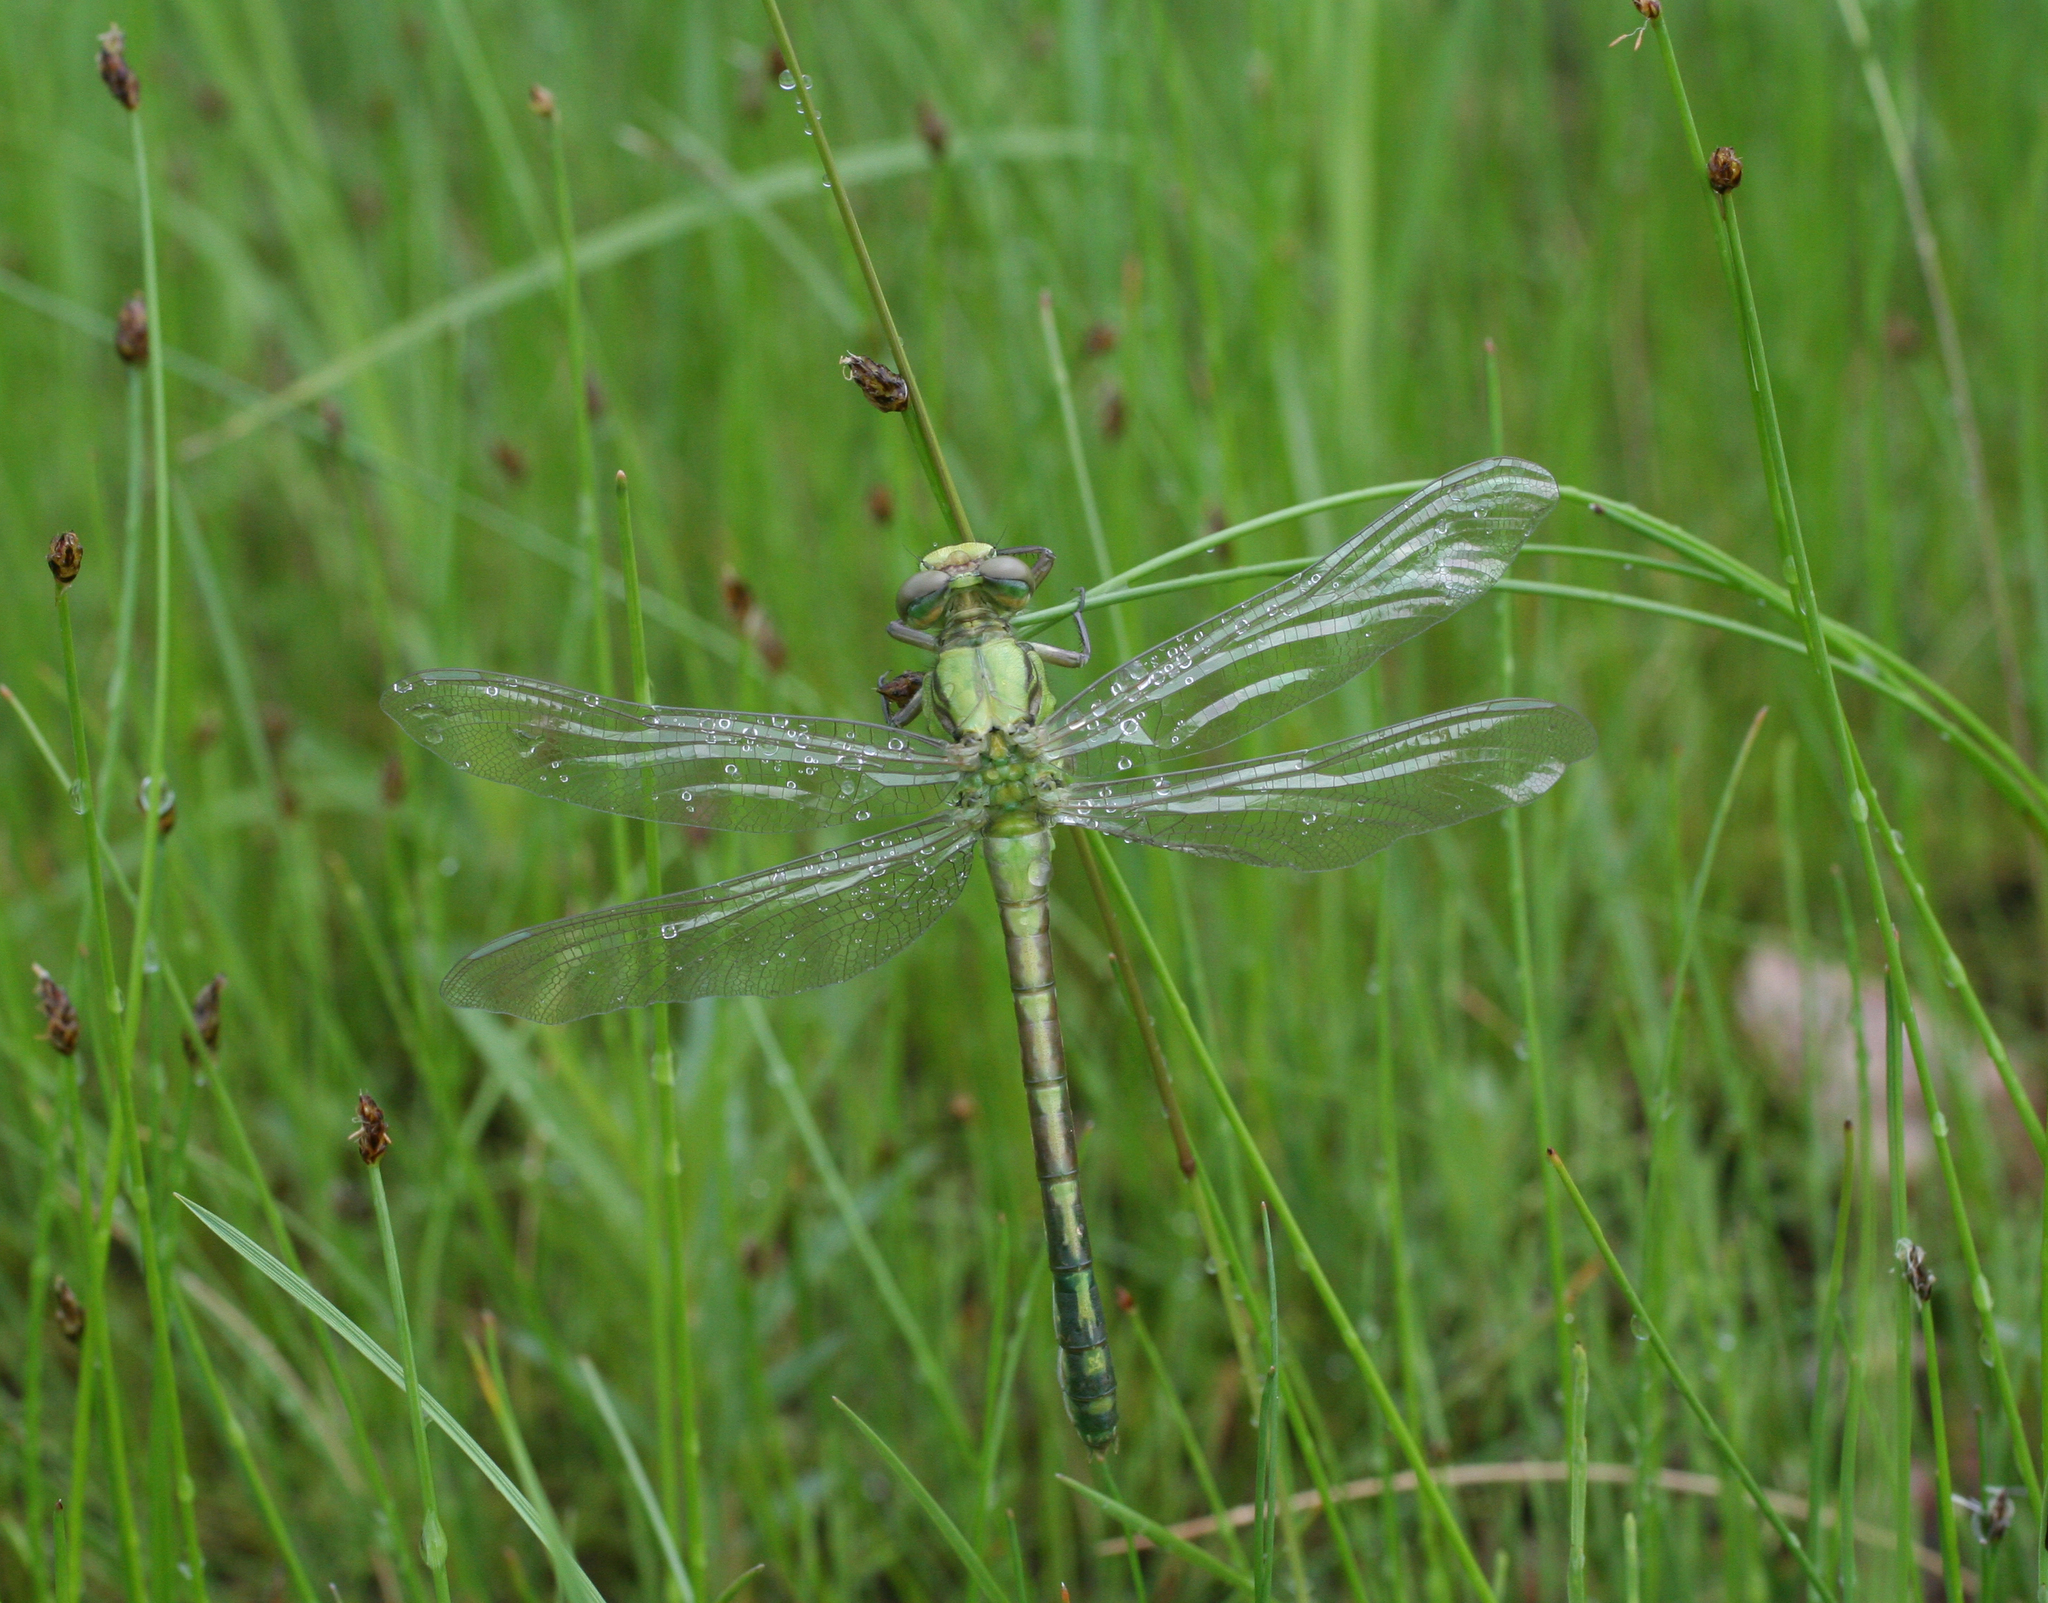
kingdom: Animalia
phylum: Arthropoda
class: Insecta
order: Odonata
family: Gomphidae
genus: Ophiogomphus
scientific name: Ophiogomphus obscurus
